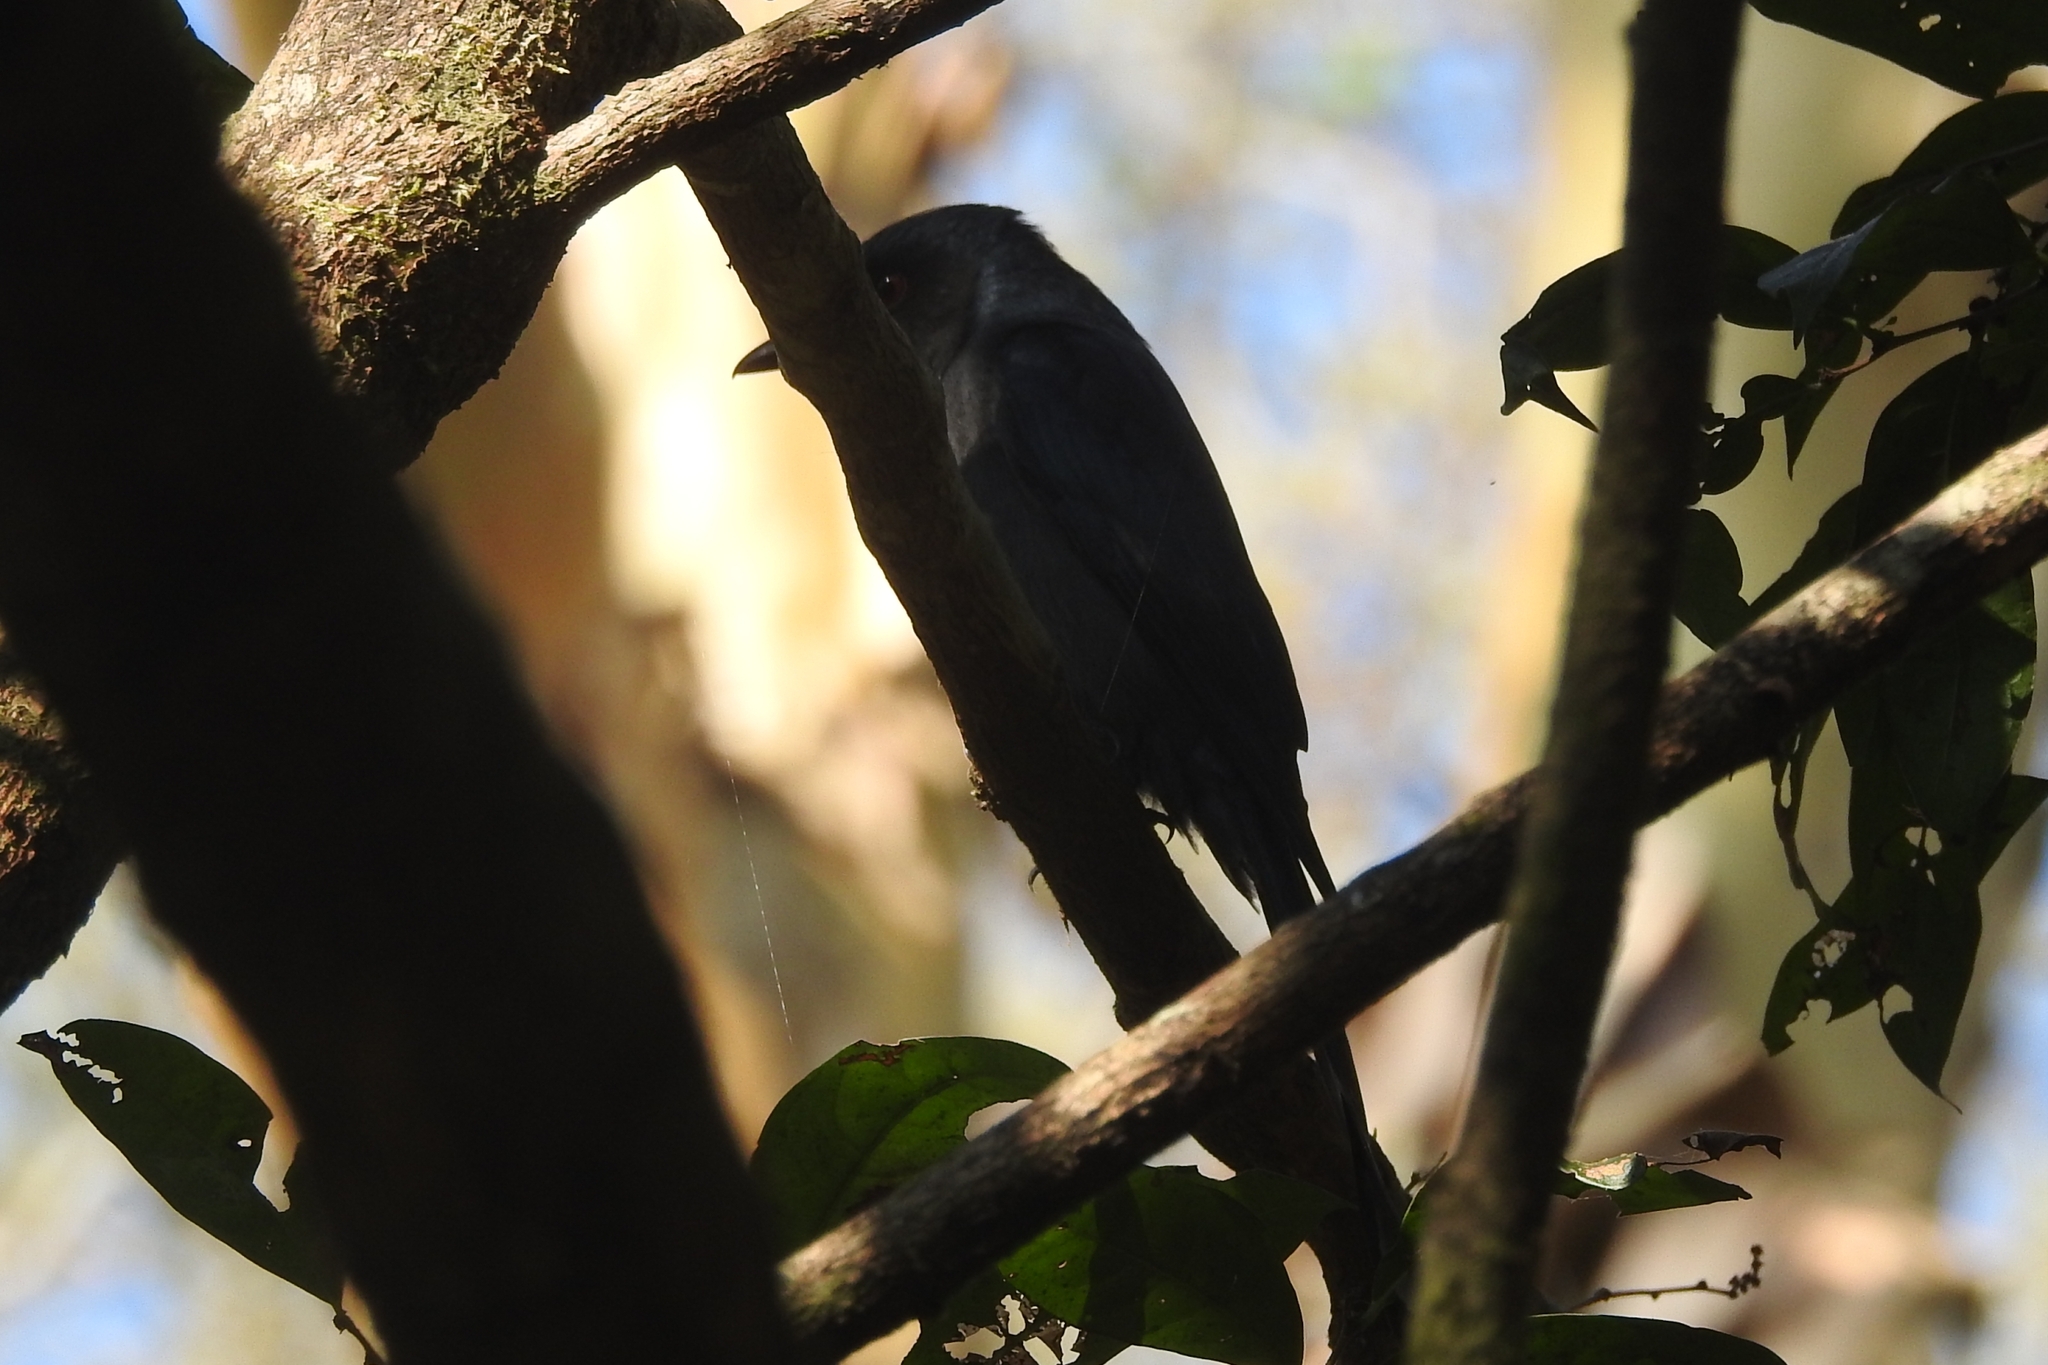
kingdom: Animalia
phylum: Chordata
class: Aves
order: Passeriformes
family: Dicruridae
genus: Dicrurus
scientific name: Dicrurus leucophaeus
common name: Ashy drongo
